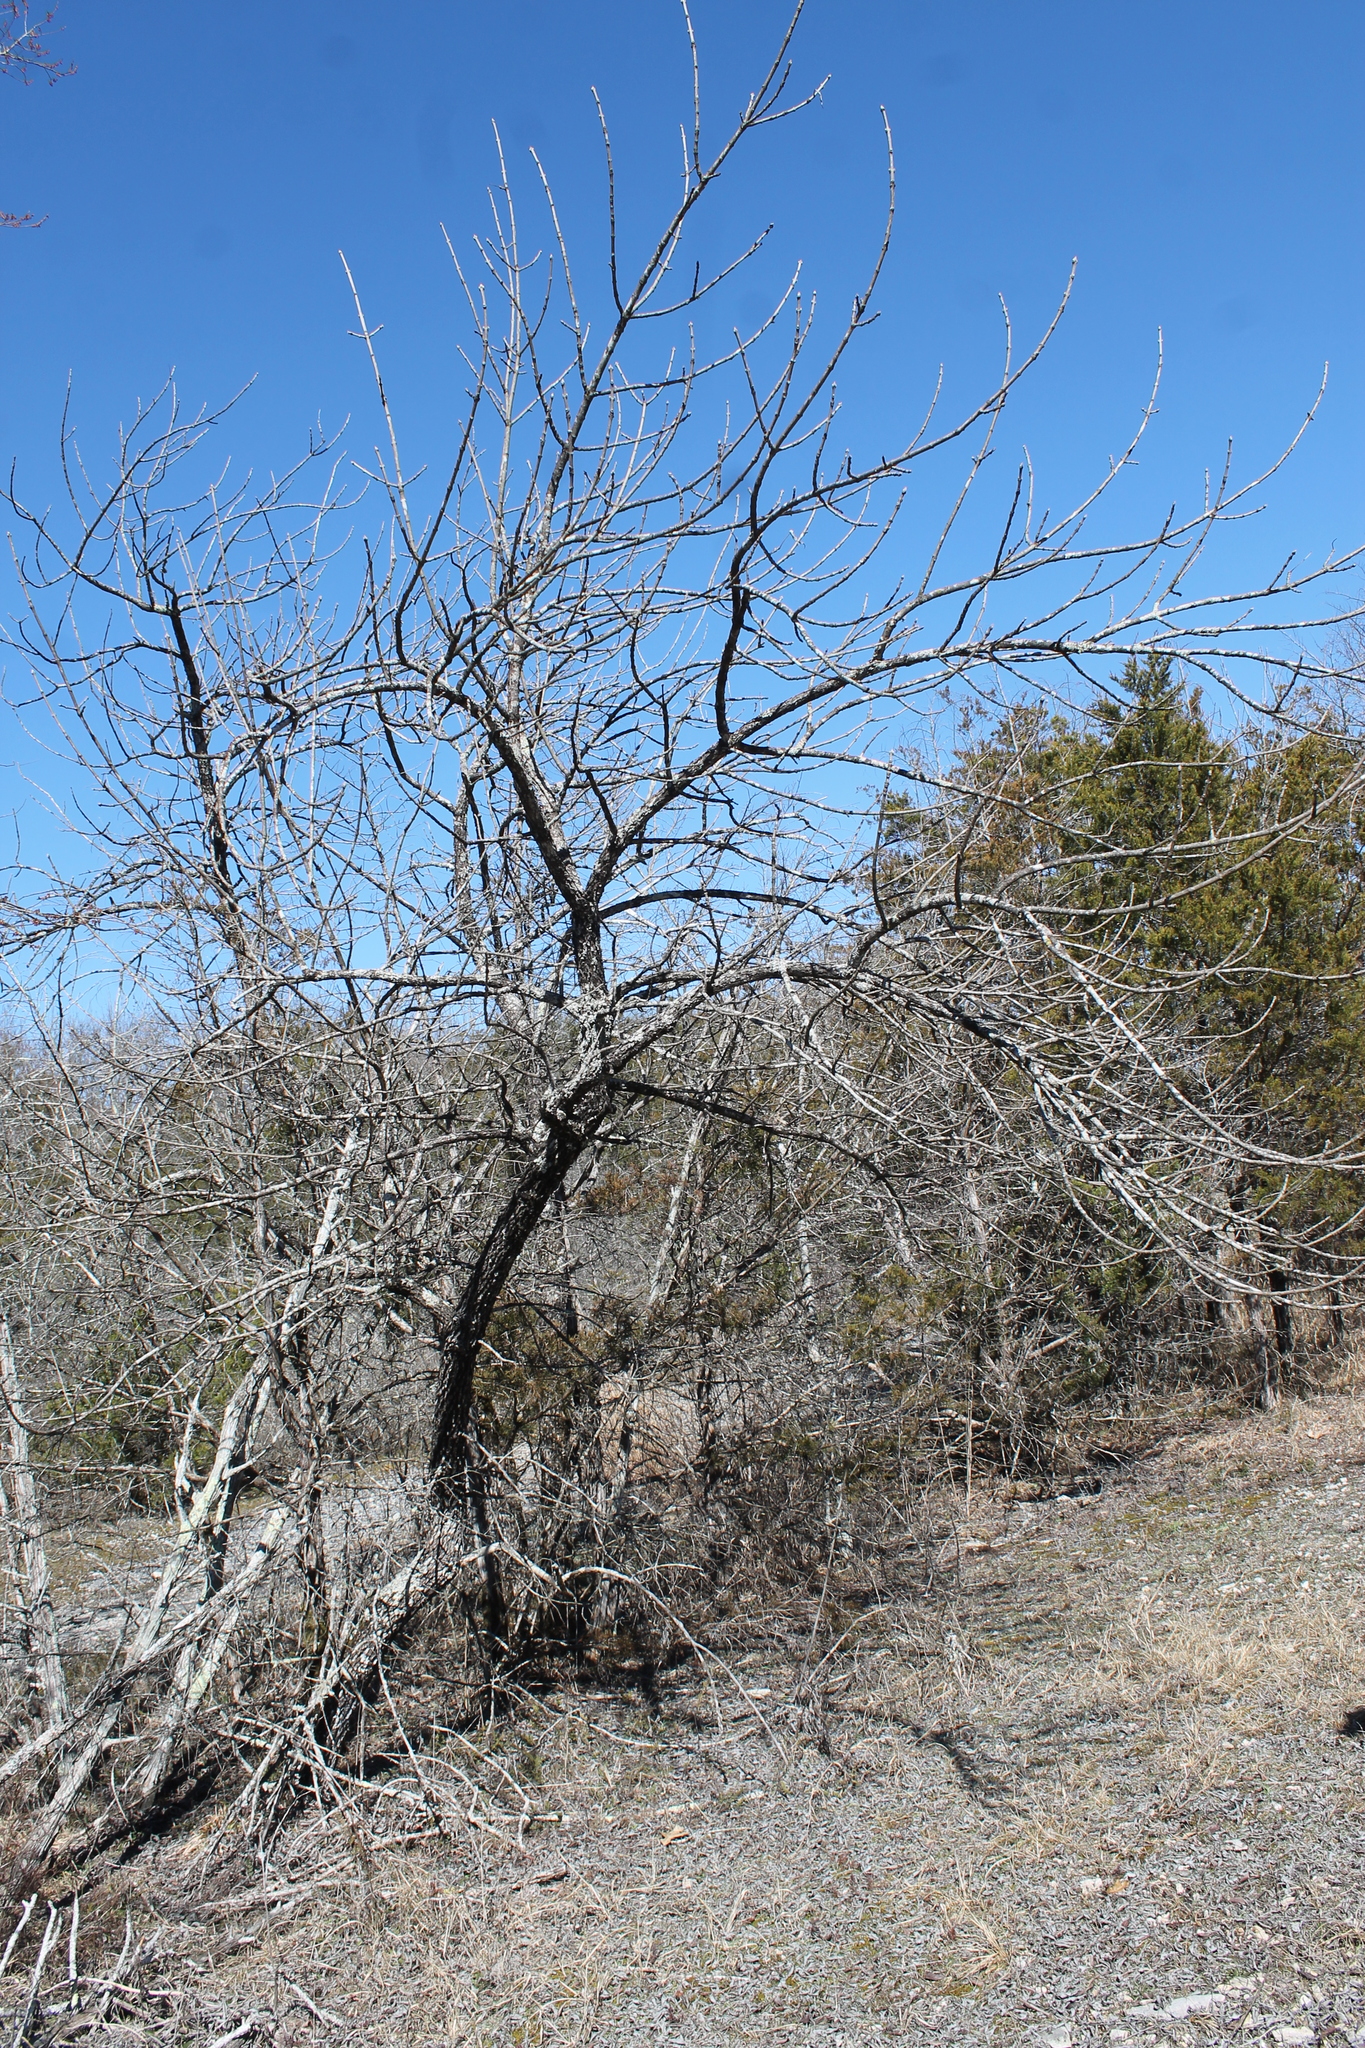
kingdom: Plantae
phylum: Tracheophyta
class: Magnoliopsida
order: Lamiales
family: Oleaceae
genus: Fraxinus
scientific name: Fraxinus quadrangulata
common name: Blue ash
